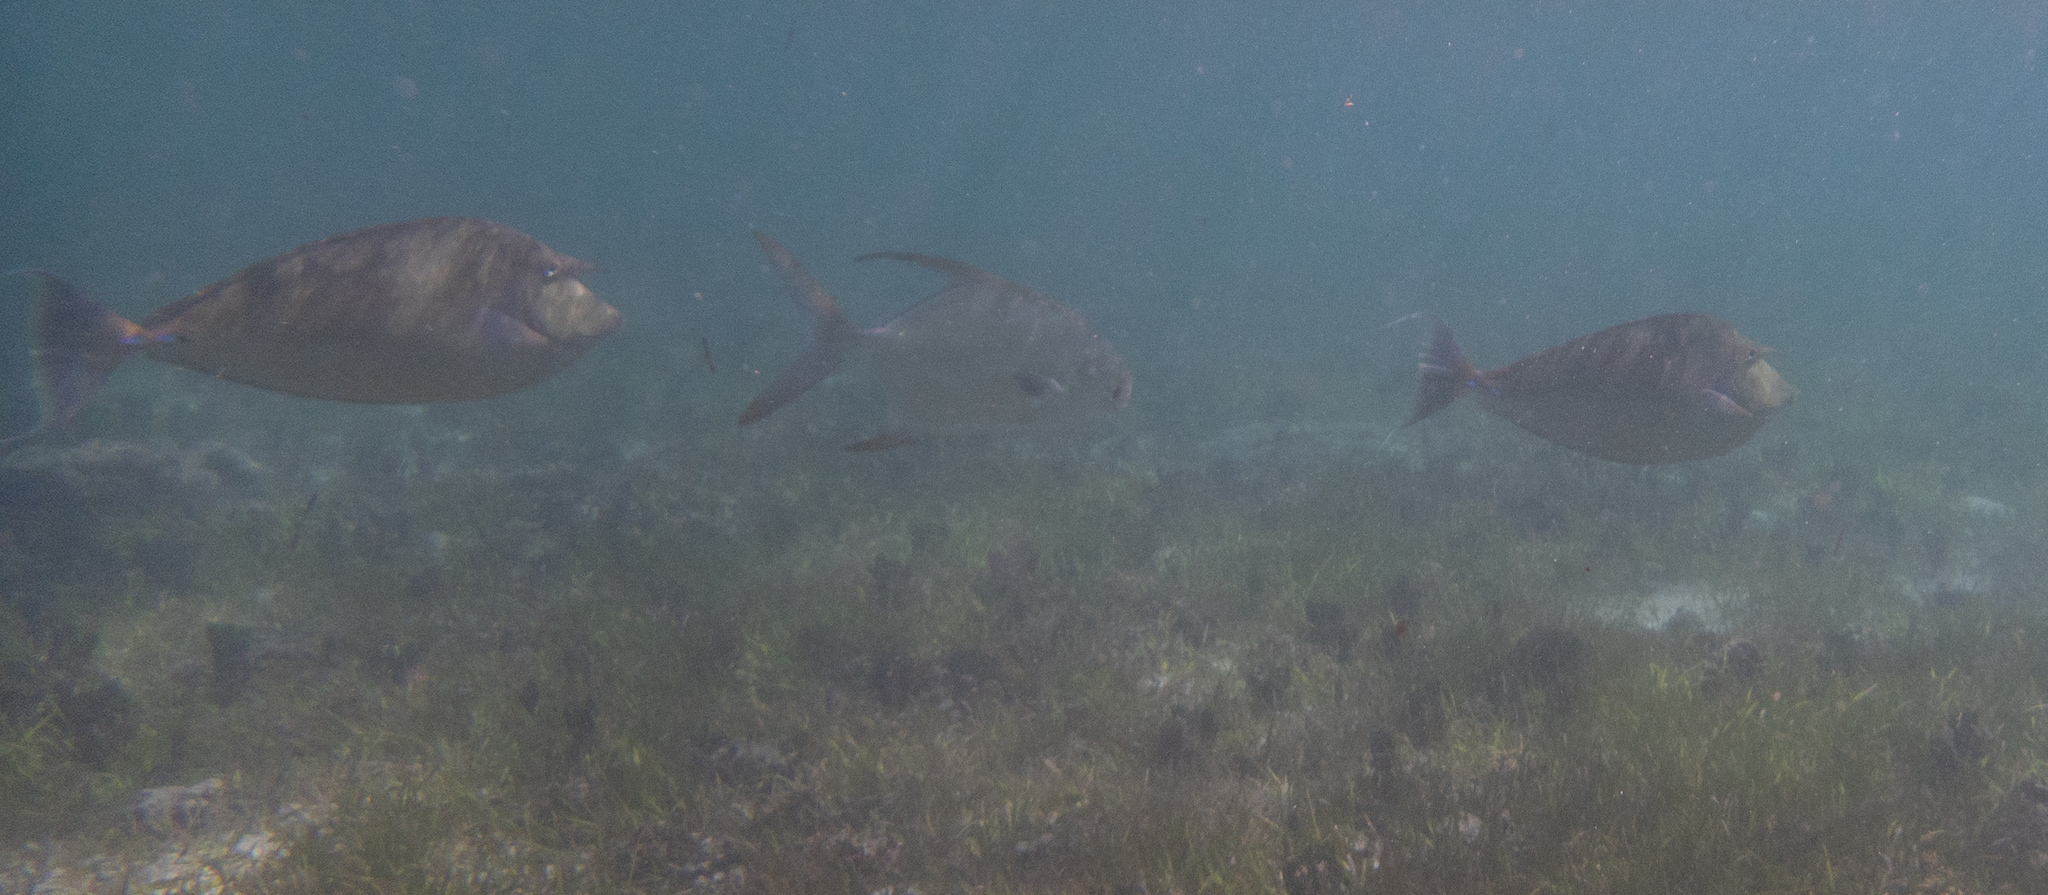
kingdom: Animalia
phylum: Chordata
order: Perciformes
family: Acanthuridae
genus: Naso
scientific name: Naso unicornis
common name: Bluespine unicornfish
